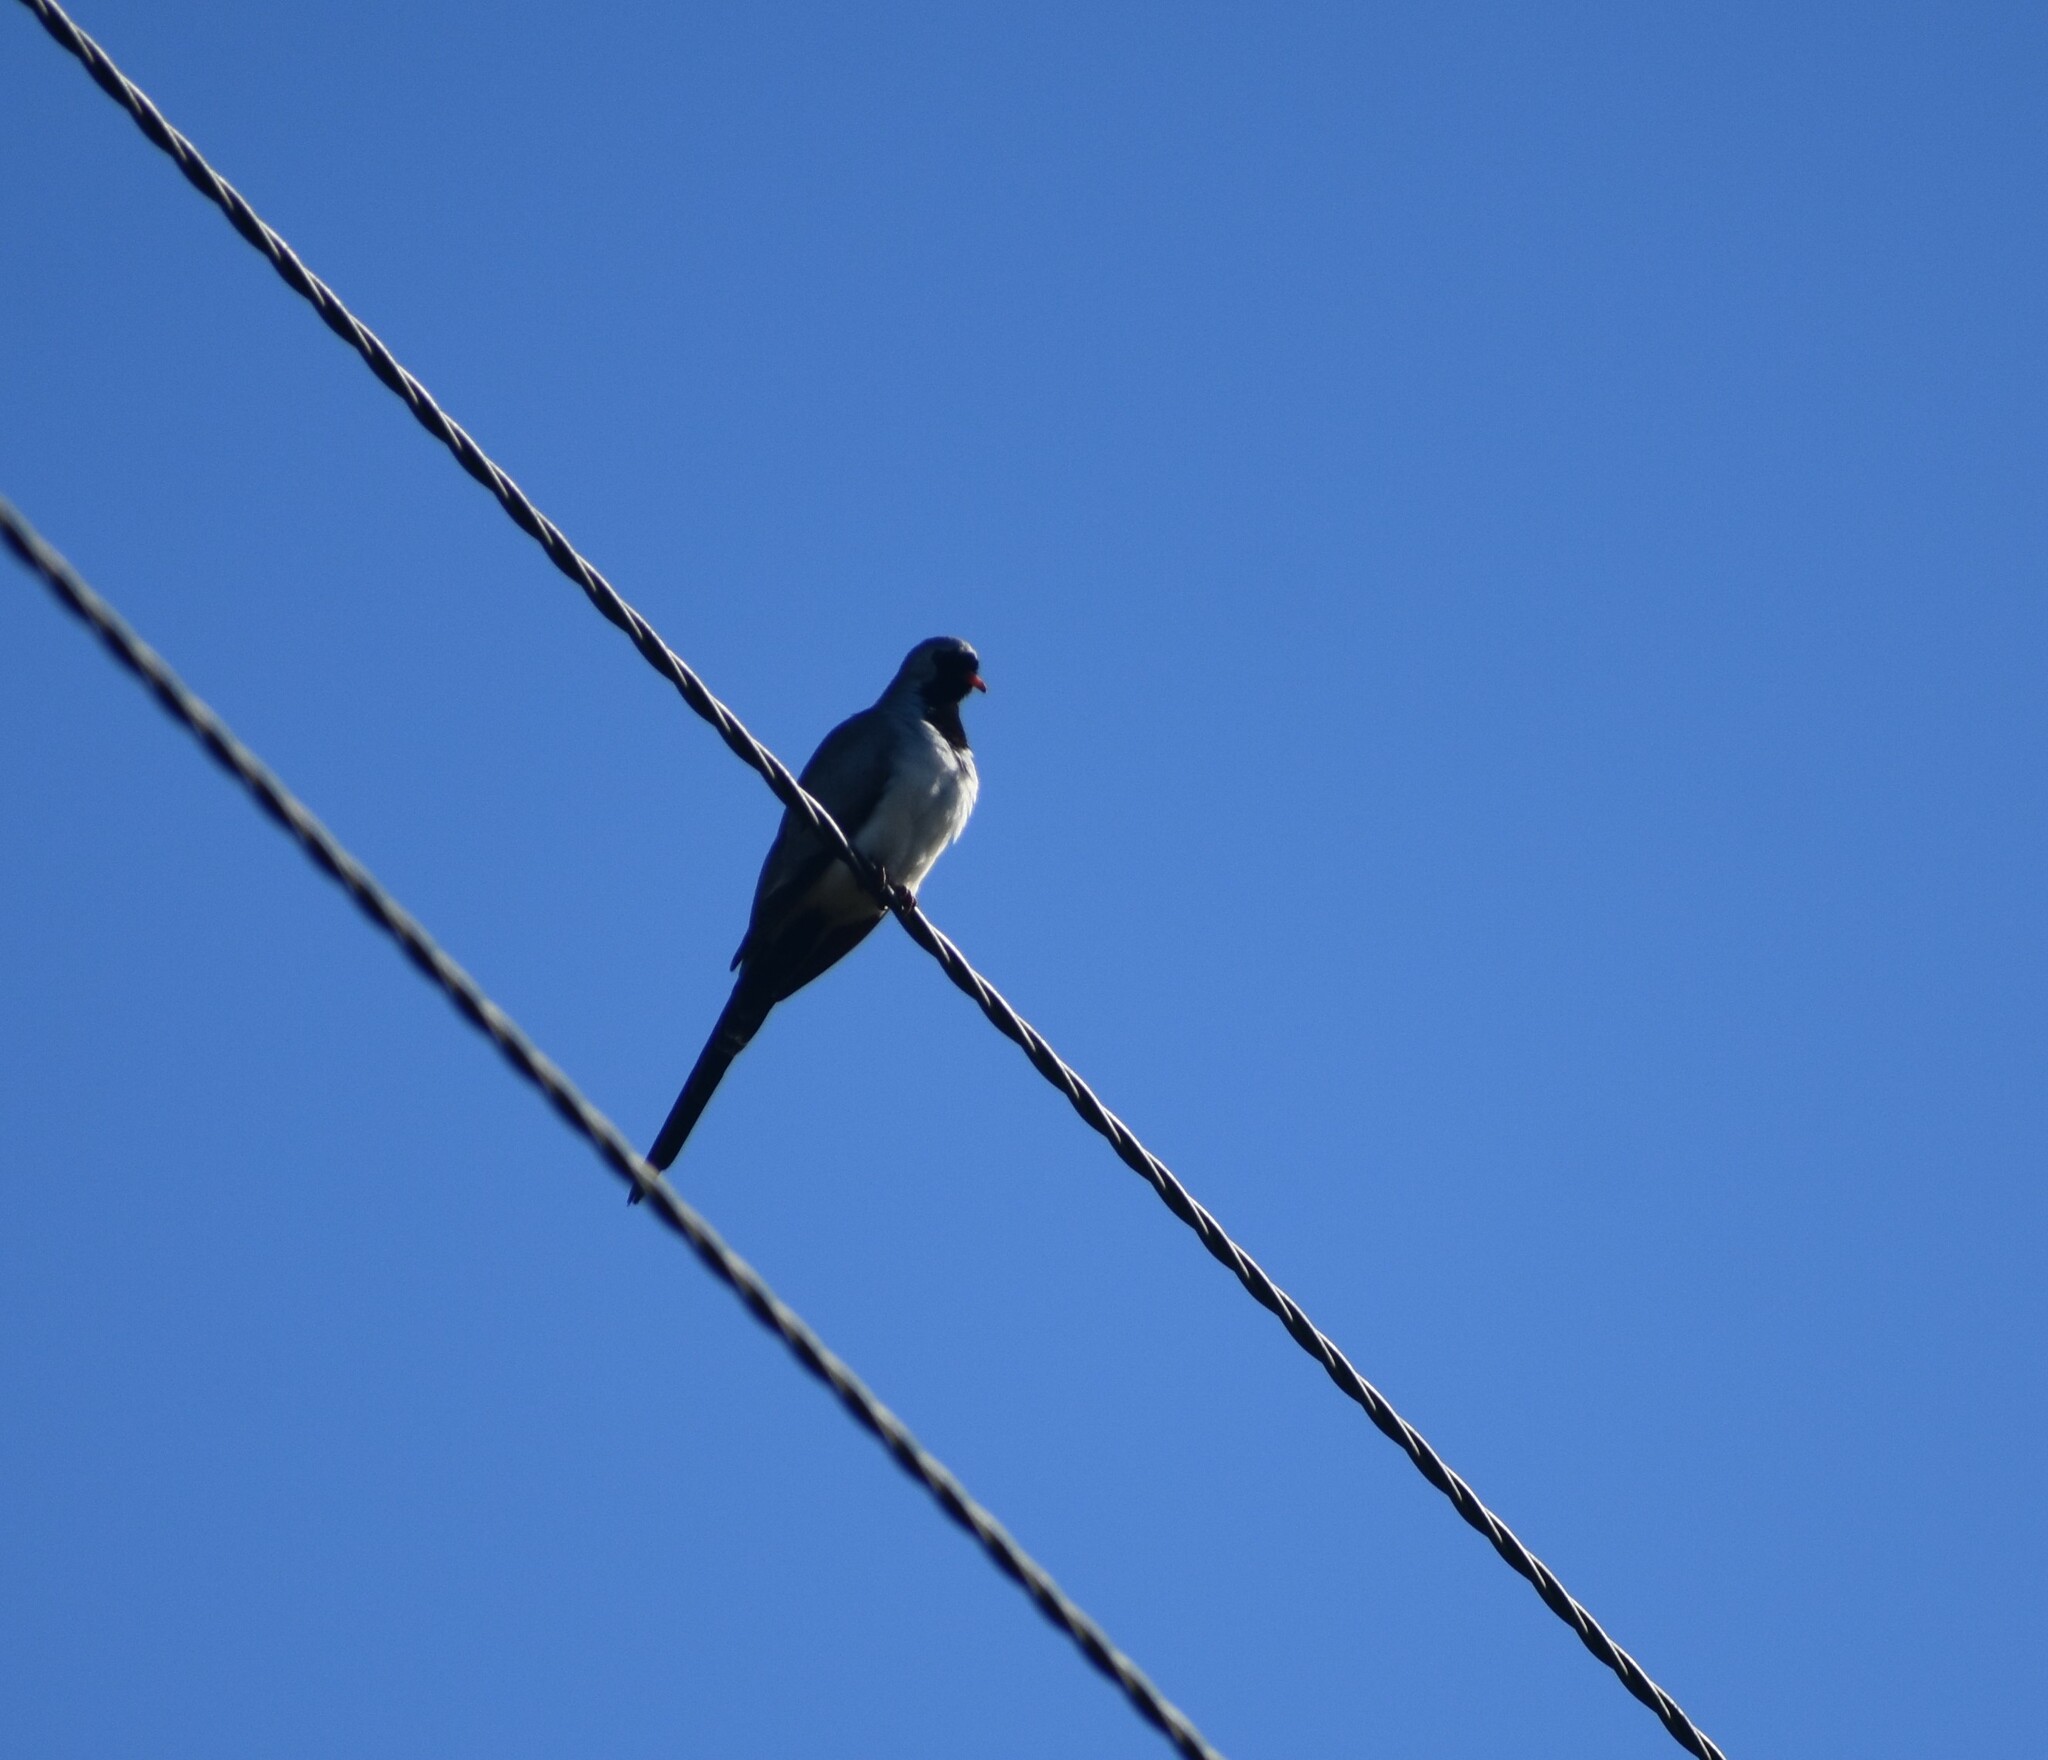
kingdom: Animalia
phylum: Chordata
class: Aves
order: Columbiformes
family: Columbidae
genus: Oena
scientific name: Oena capensis
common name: Namaqua dove
